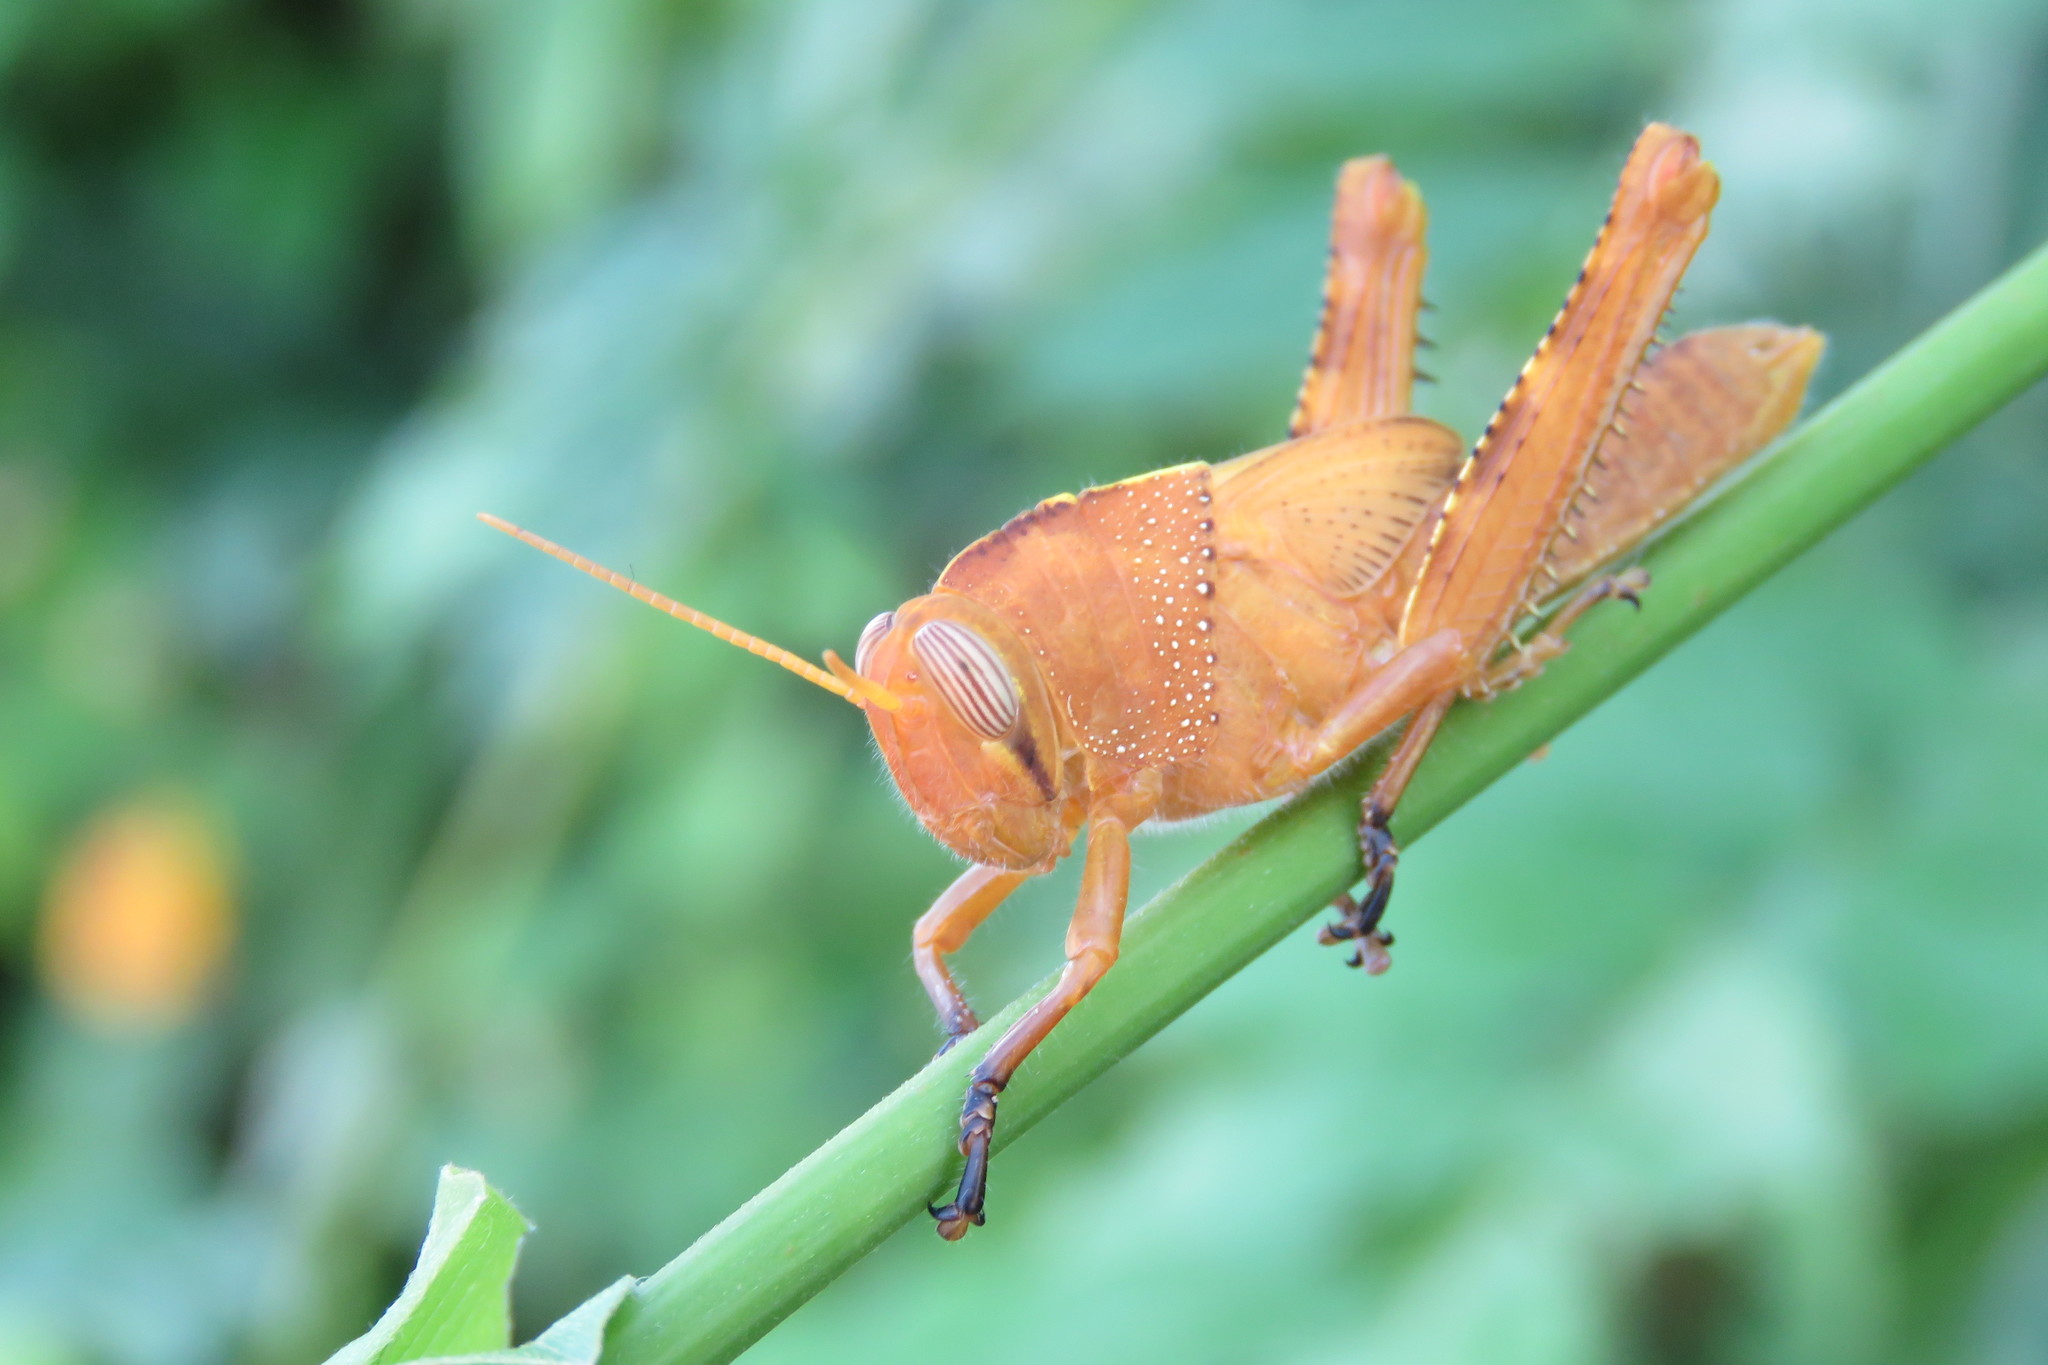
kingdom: Animalia
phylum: Arthropoda
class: Insecta
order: Orthoptera
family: Acrididae
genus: Anacridium
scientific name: Anacridium aegyptium
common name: Egyptian grasshopper
